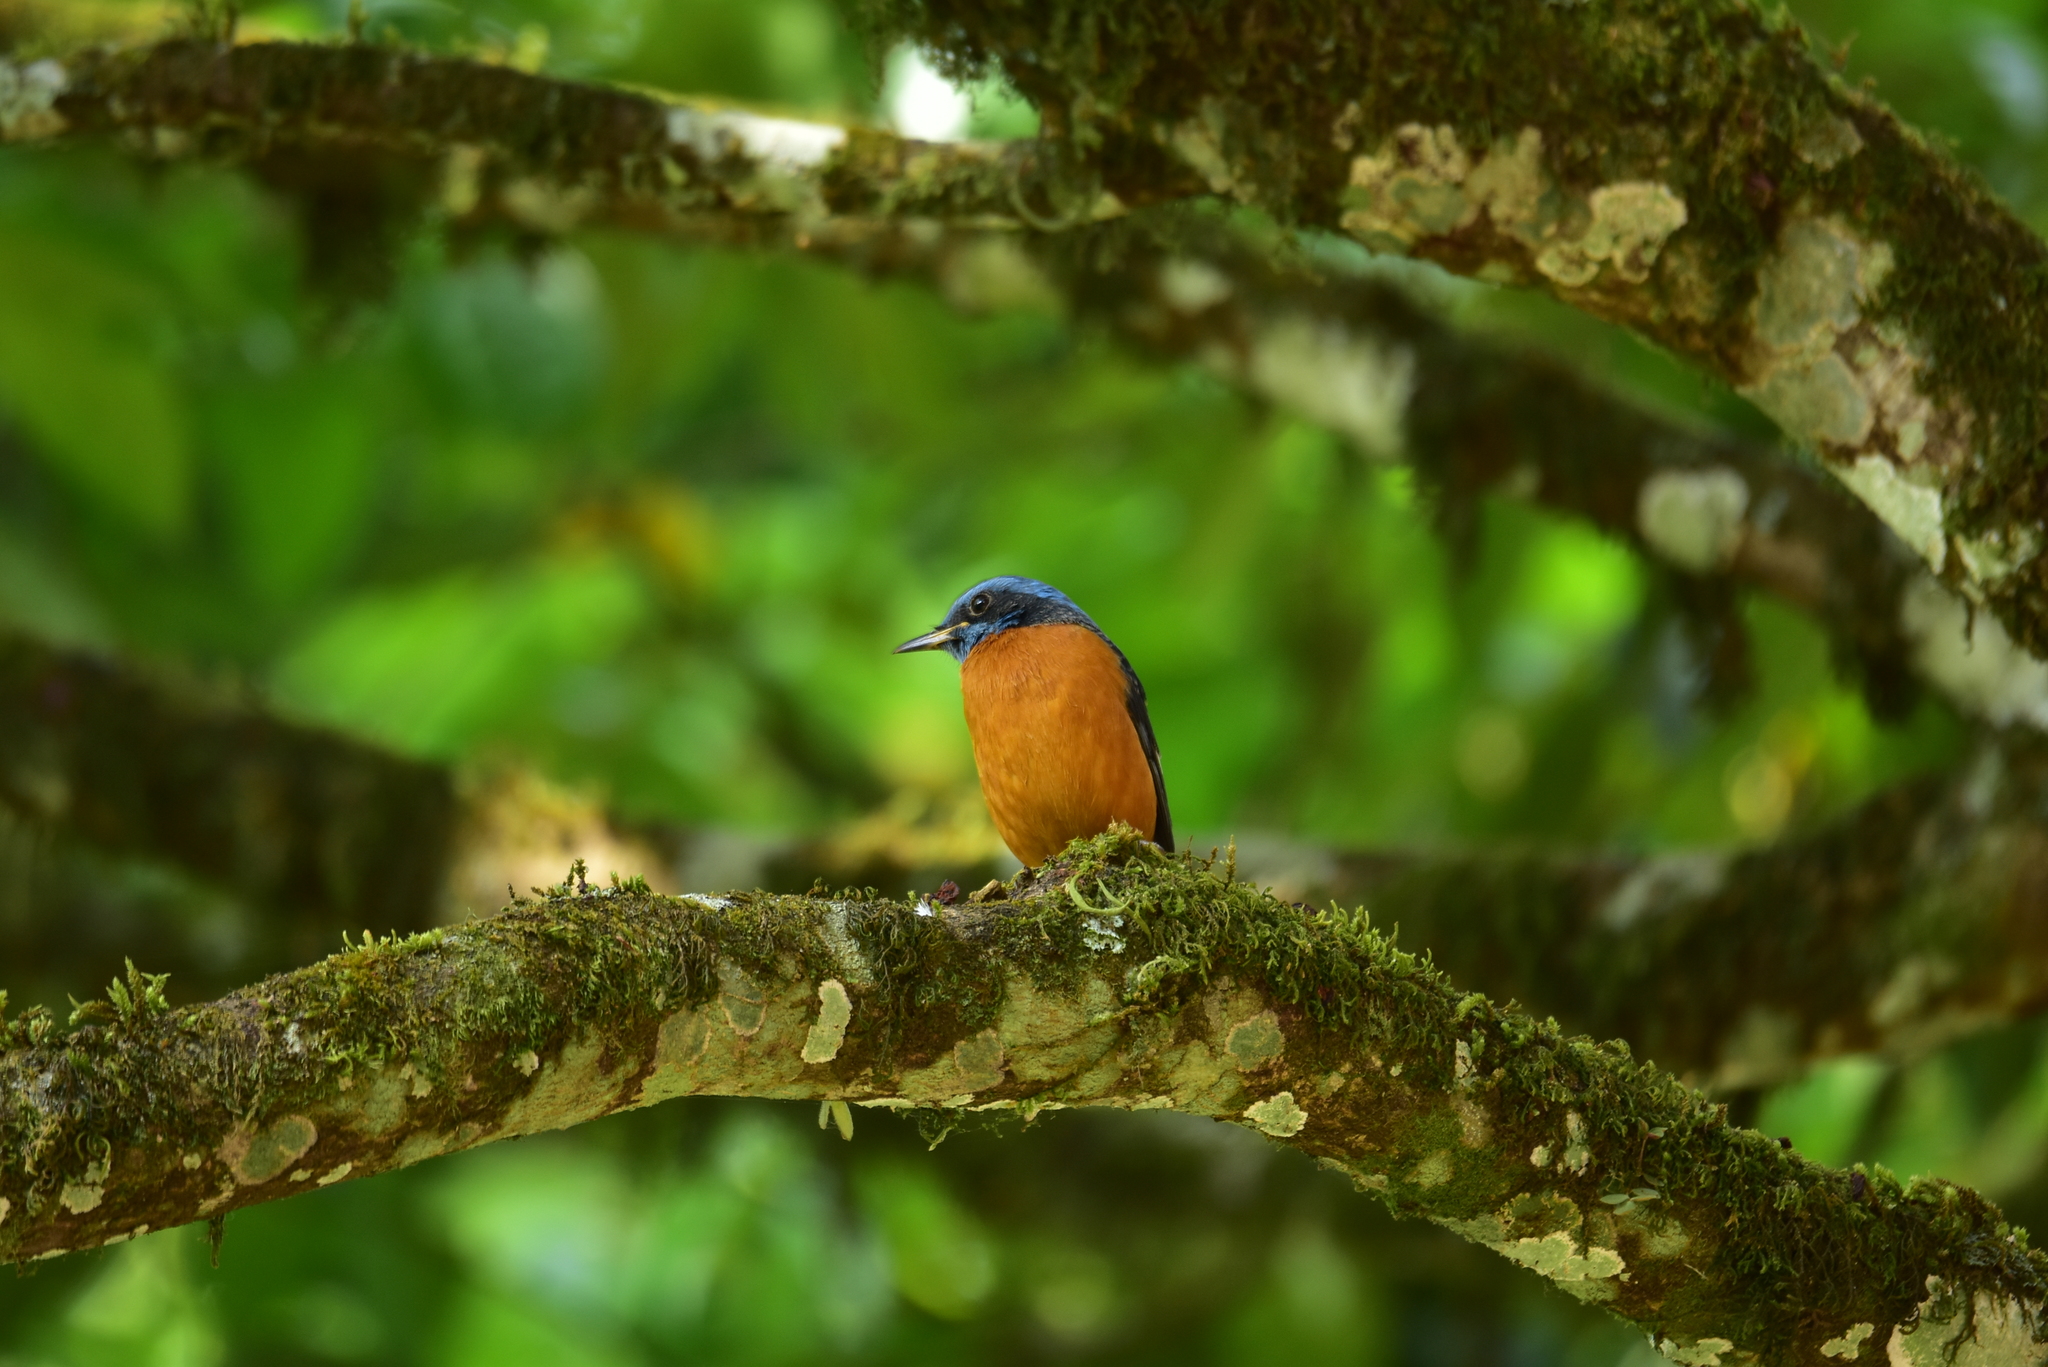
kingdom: Animalia
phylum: Chordata
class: Aves
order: Passeriformes
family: Muscicapidae
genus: Monticola
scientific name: Monticola cinclorhynchus
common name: Blue-capped rock thrush
